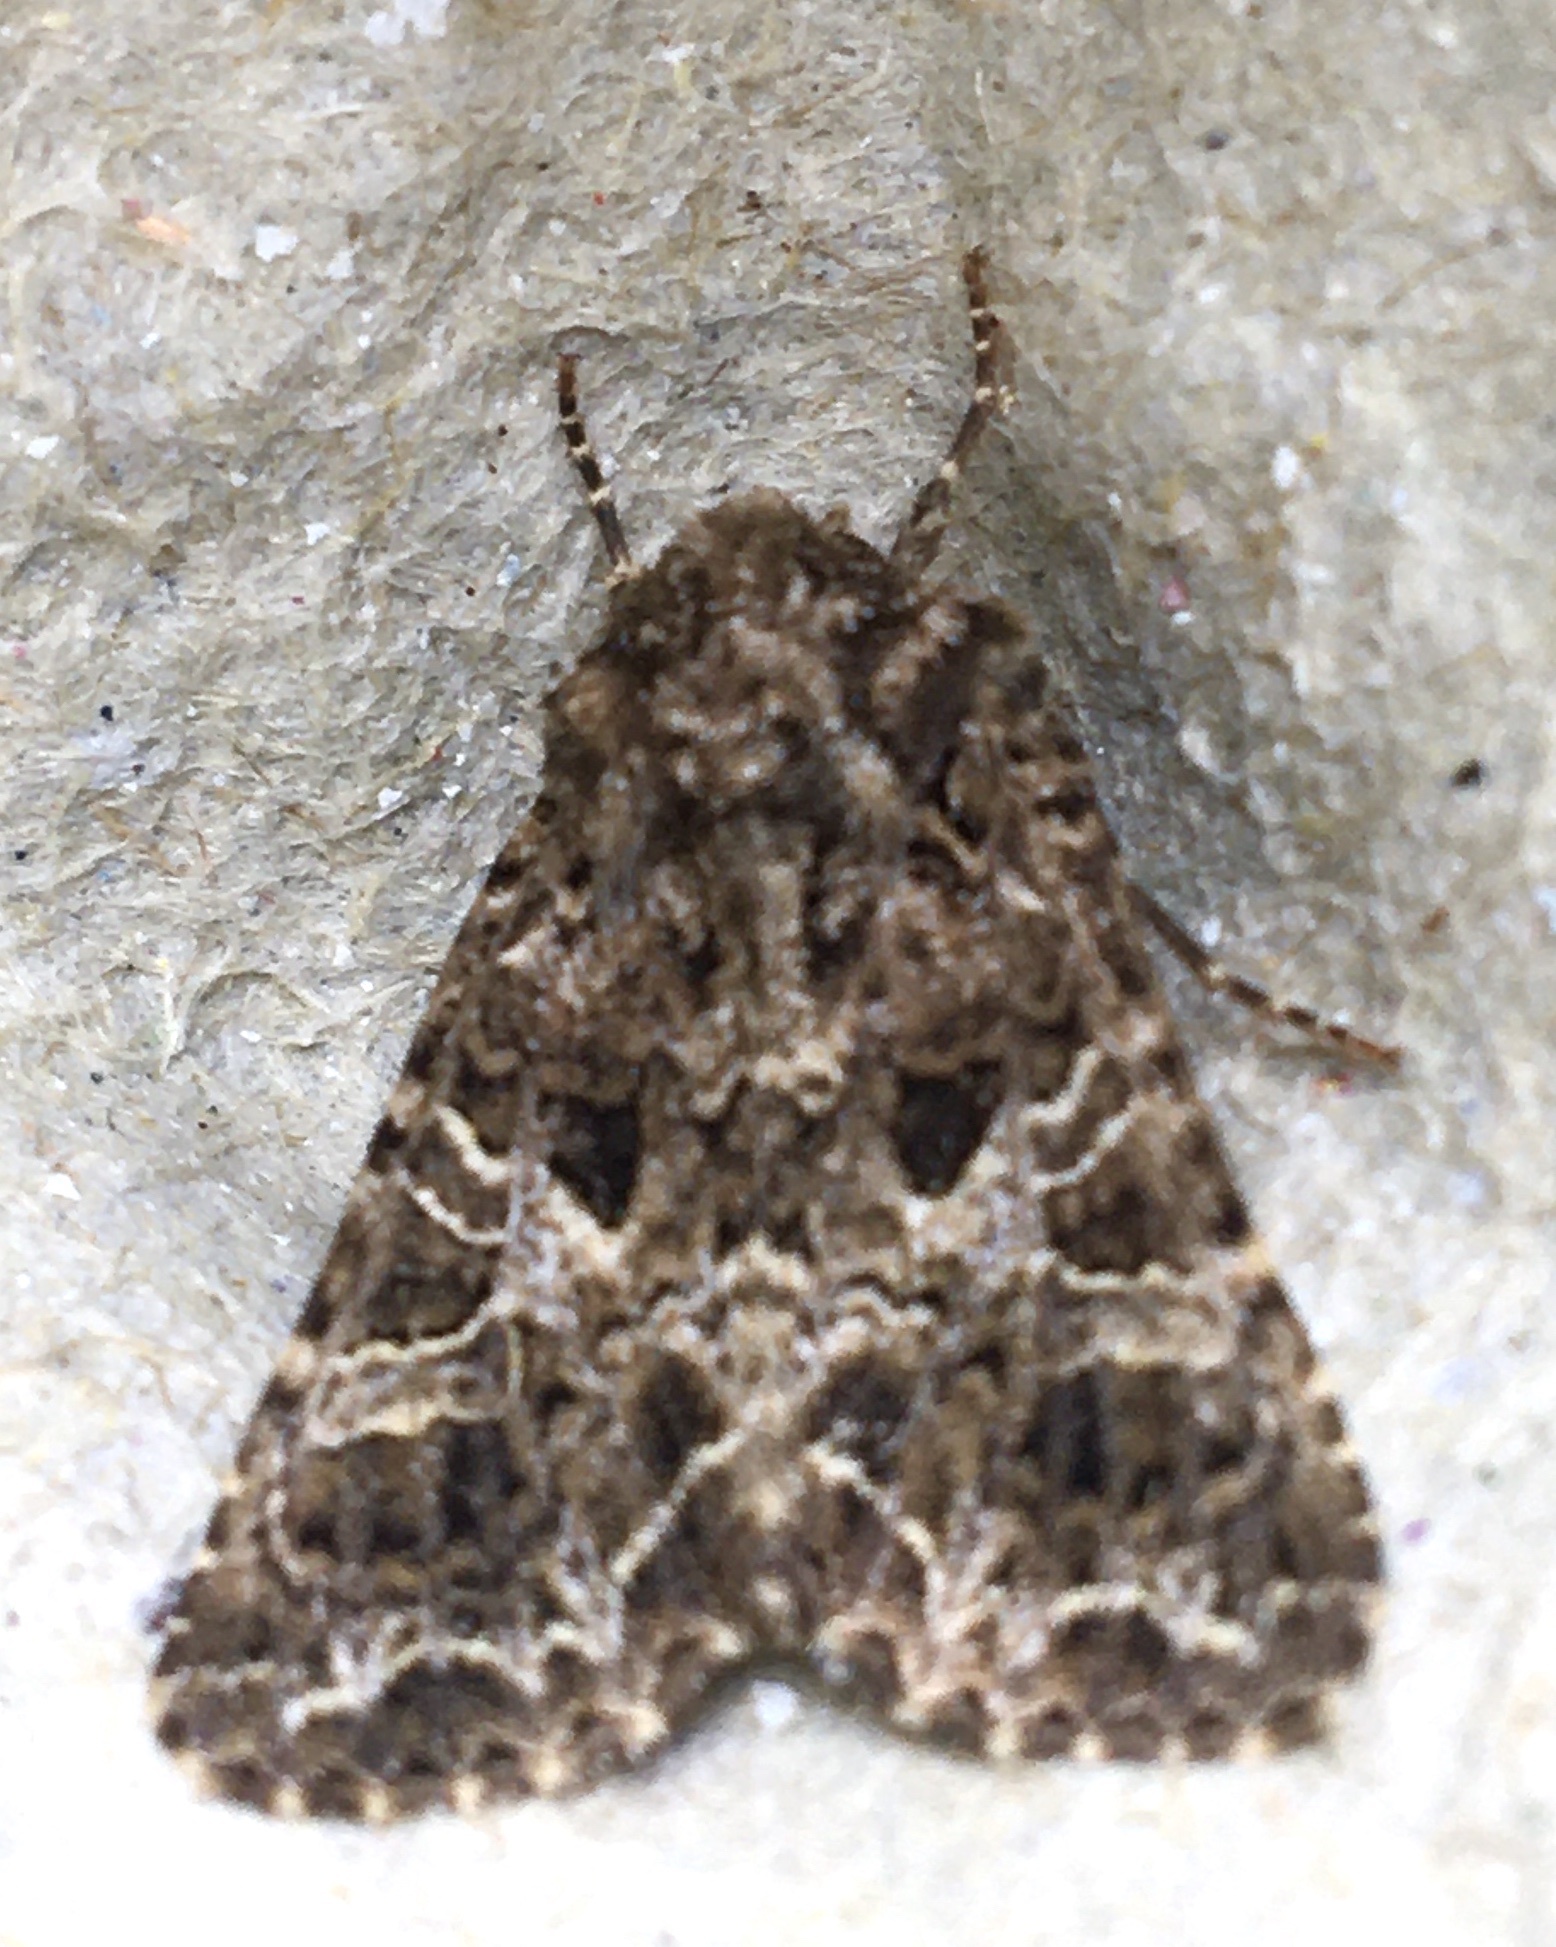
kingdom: Animalia
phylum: Arthropoda
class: Insecta
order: Lepidoptera
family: Noctuidae
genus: Hadena
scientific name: Hadena bicruris
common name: Lychnis
